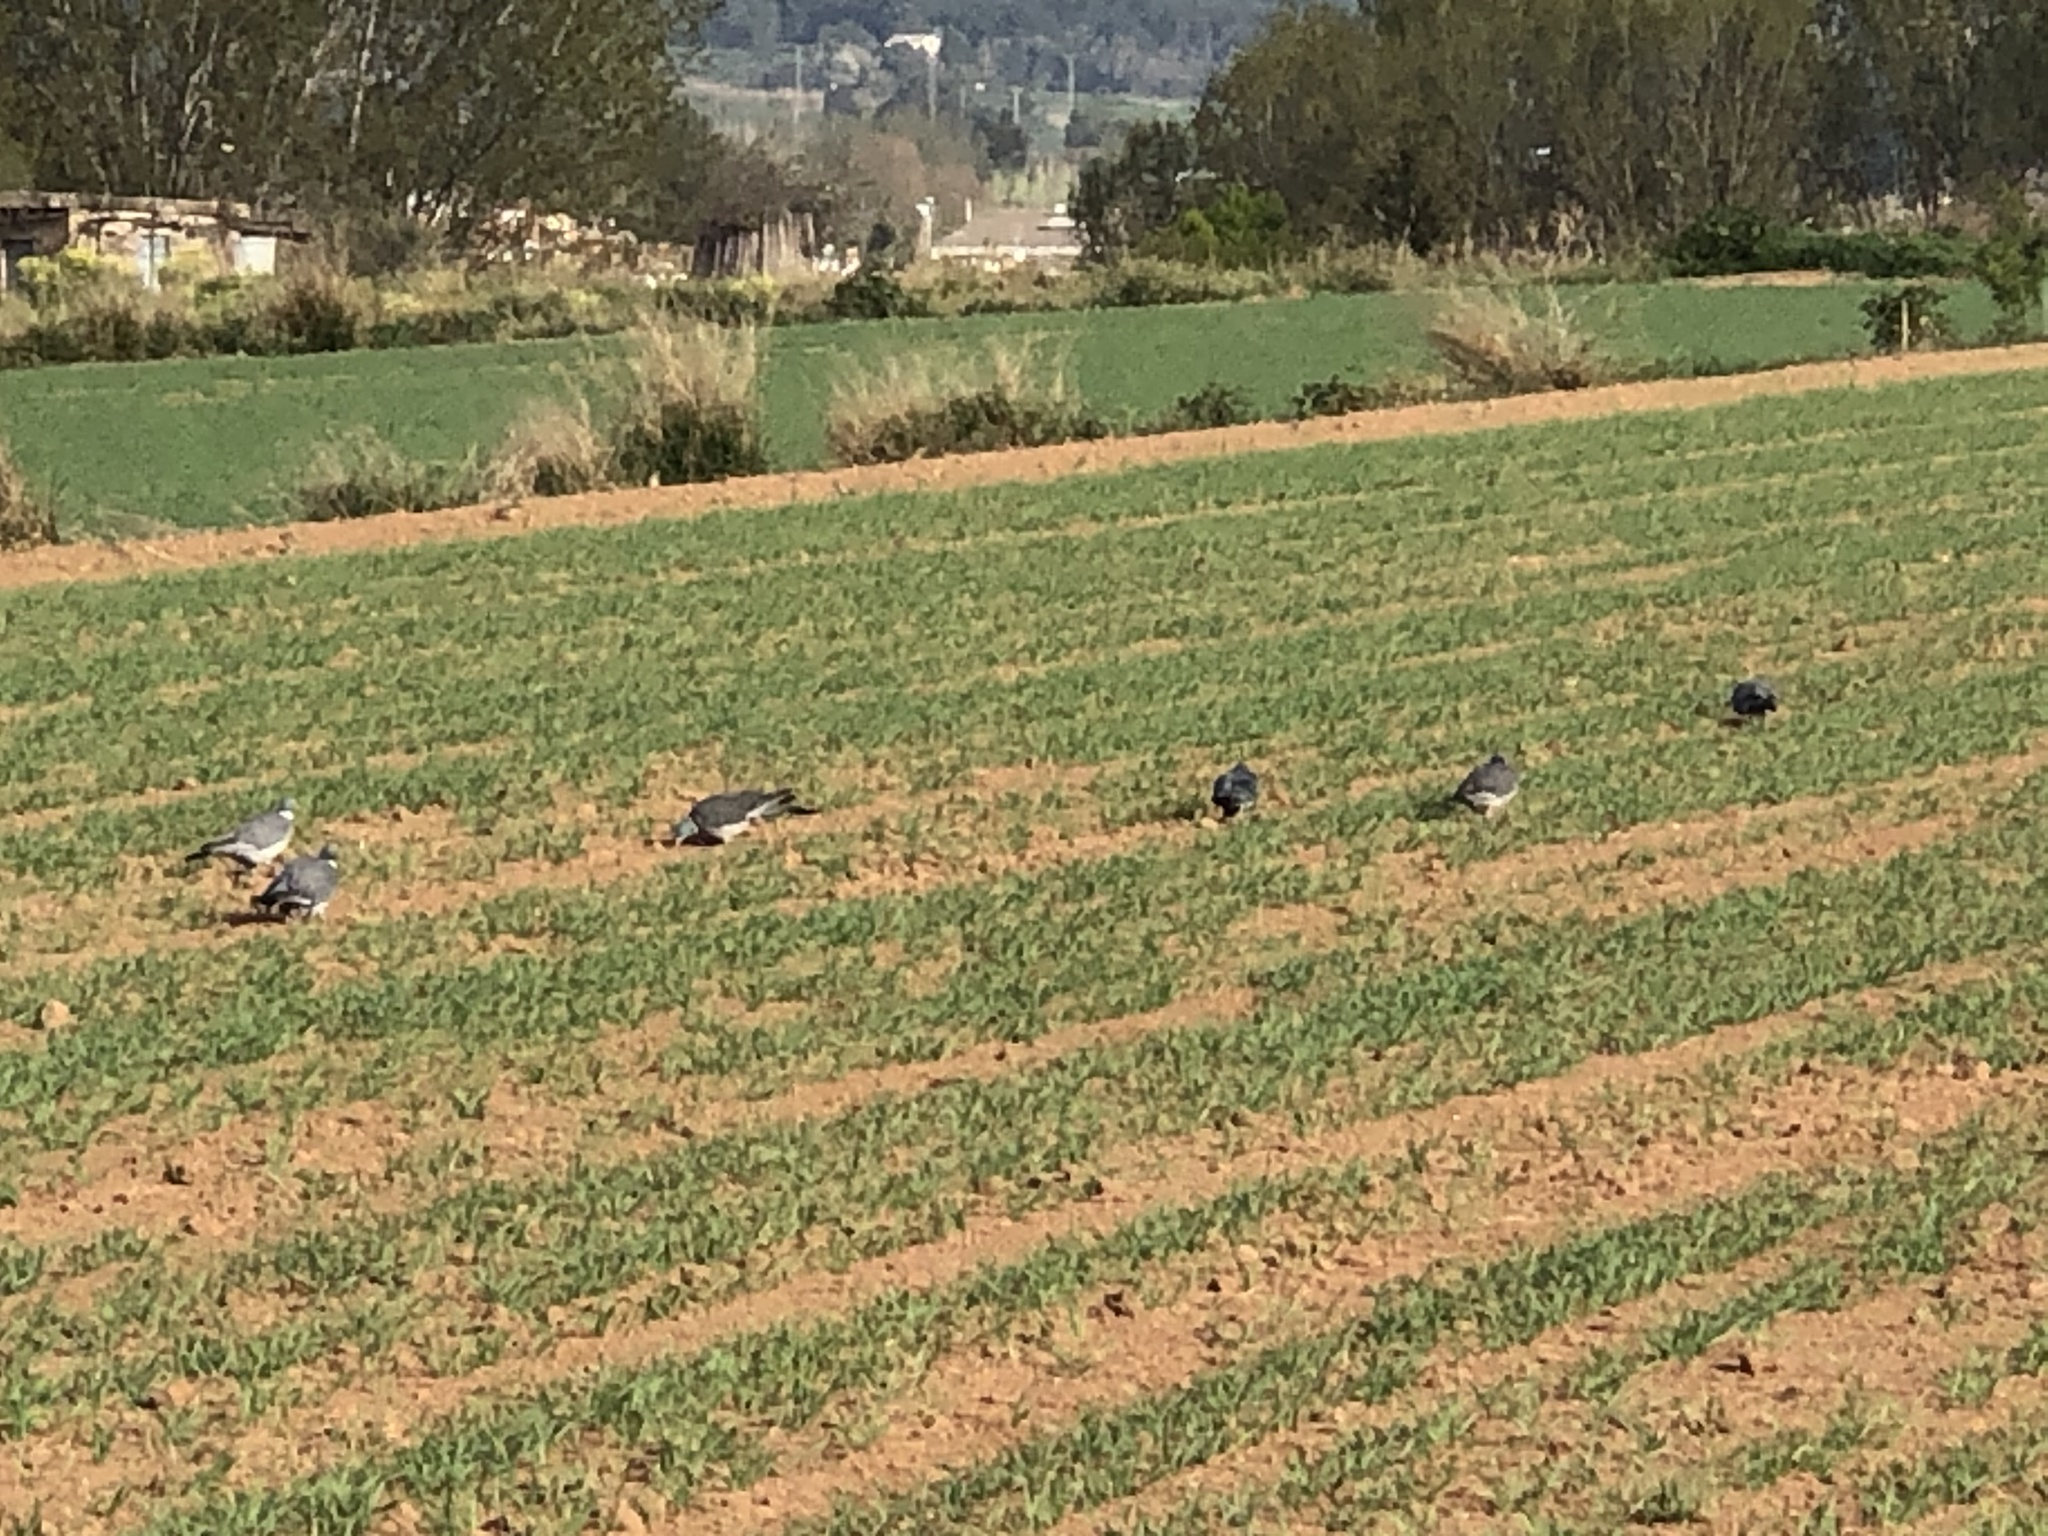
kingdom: Animalia
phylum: Chordata
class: Aves
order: Columbiformes
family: Columbidae
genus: Columba
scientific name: Columba palumbus
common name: Common wood pigeon
